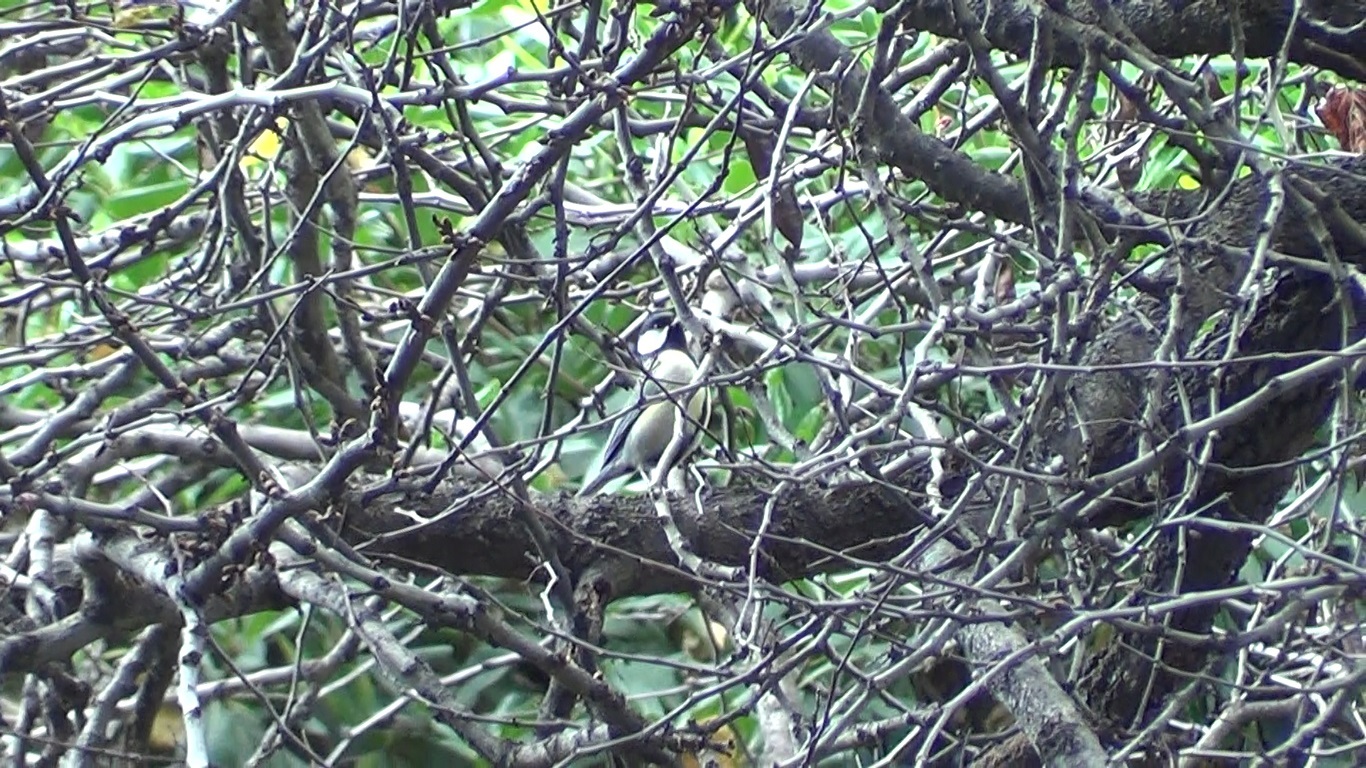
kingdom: Animalia
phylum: Chordata
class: Aves
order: Passeriformes
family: Paridae
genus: Parus
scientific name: Parus major
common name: Great tit
